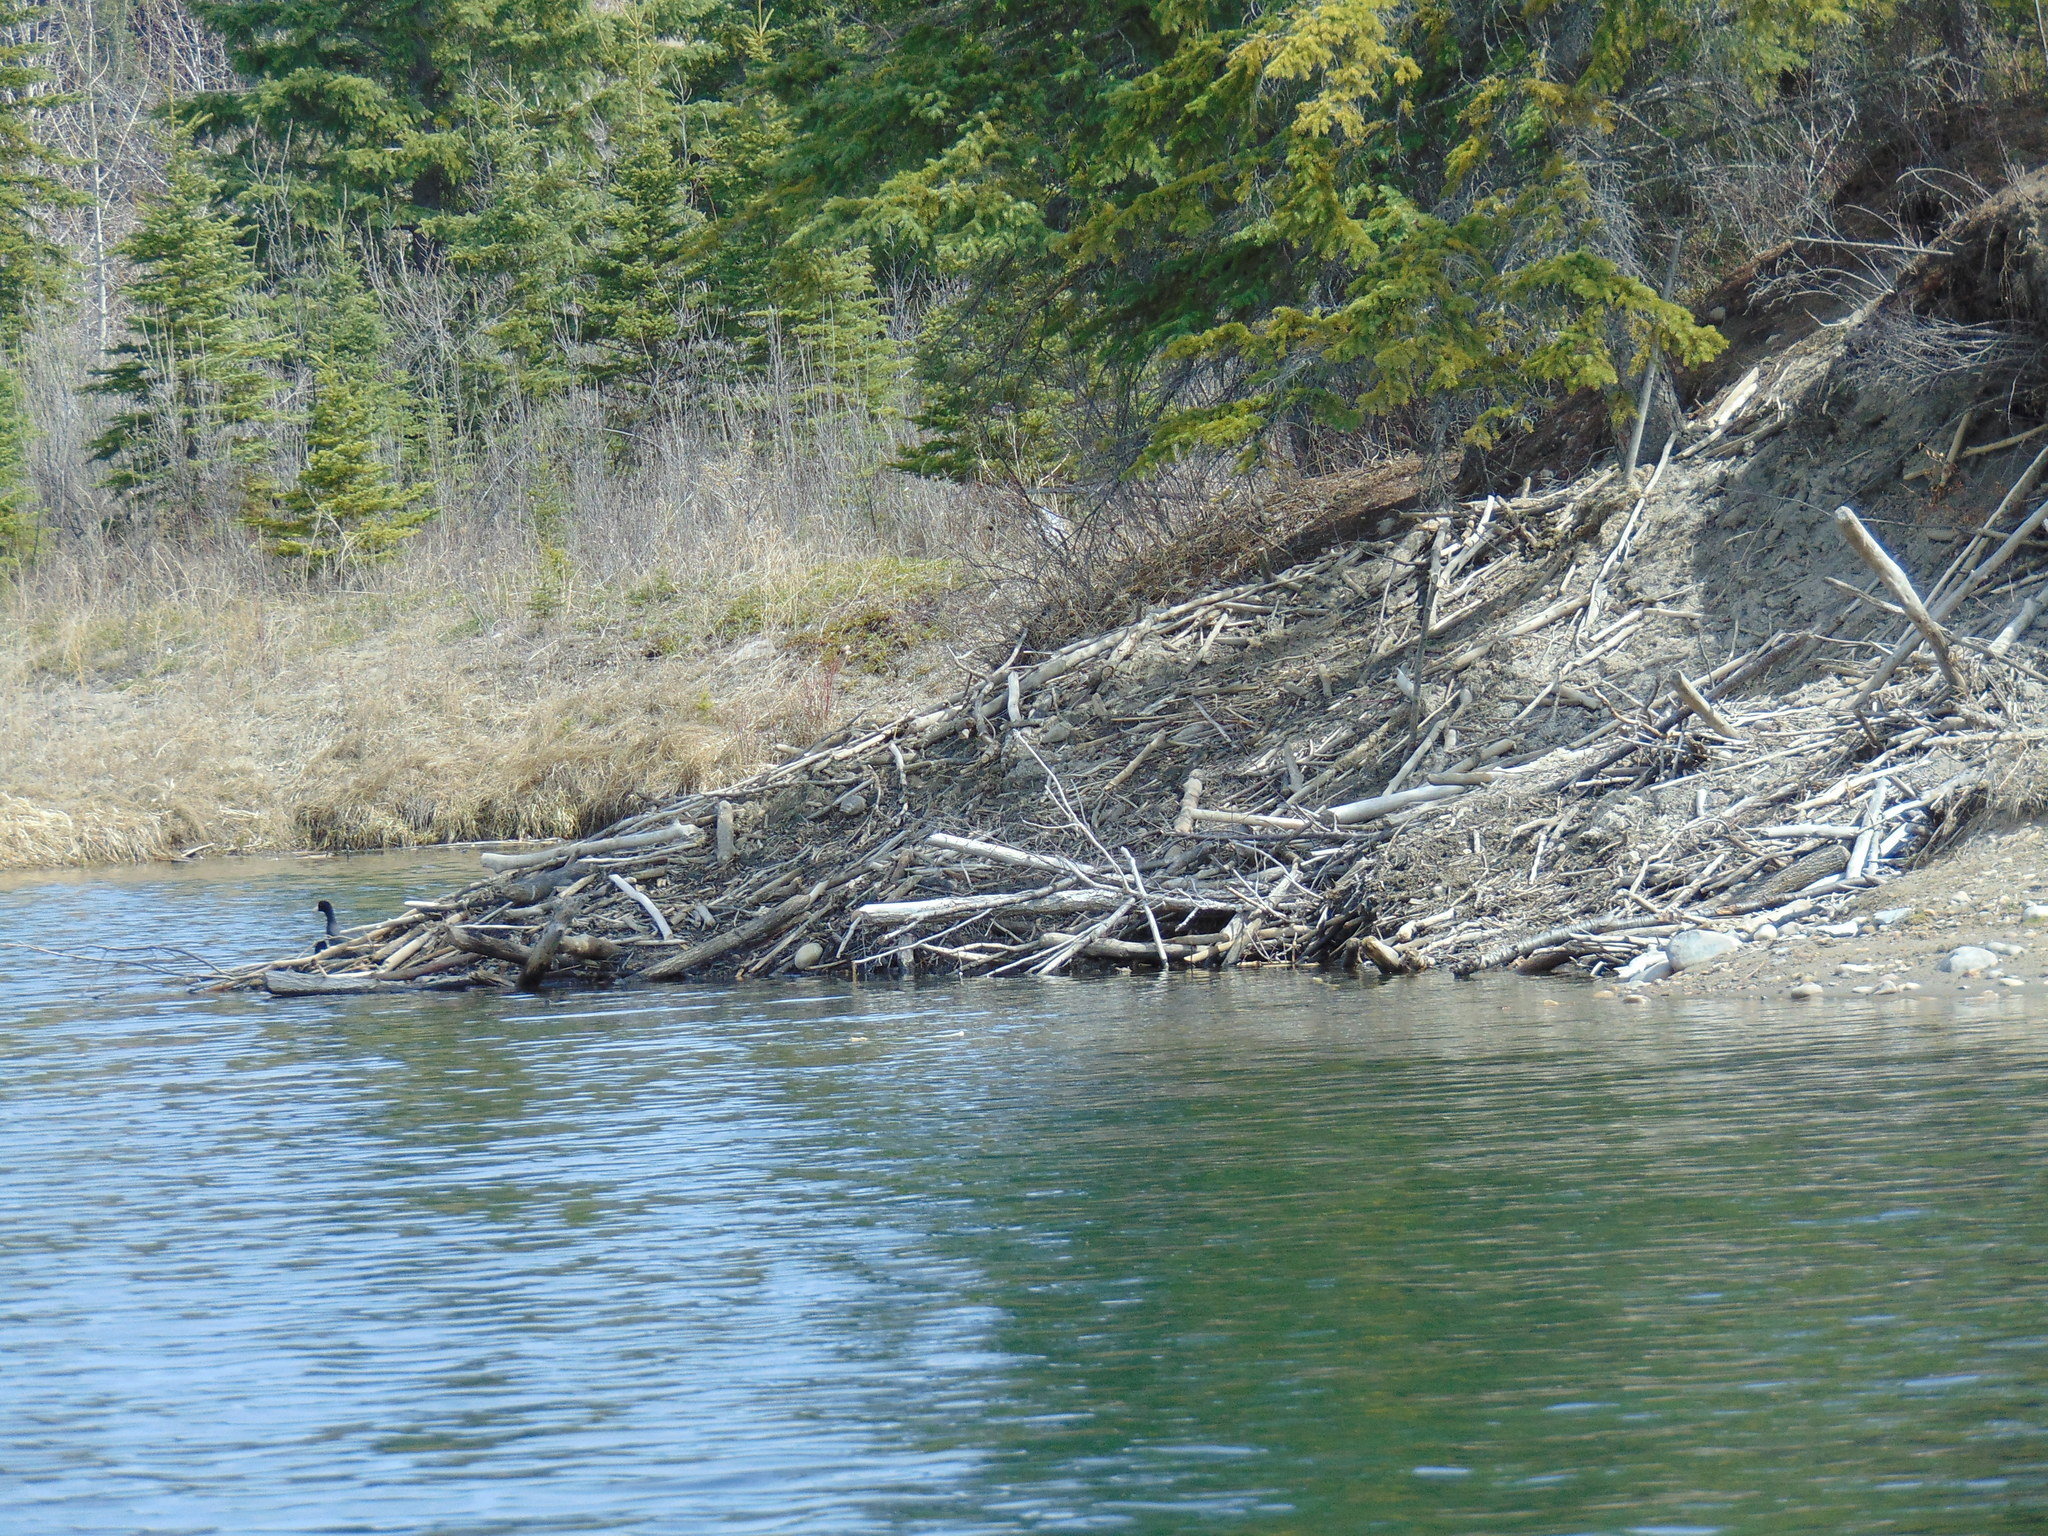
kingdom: Animalia
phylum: Chordata
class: Aves
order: Gruiformes
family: Rallidae
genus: Fulica
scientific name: Fulica americana
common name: American coot
